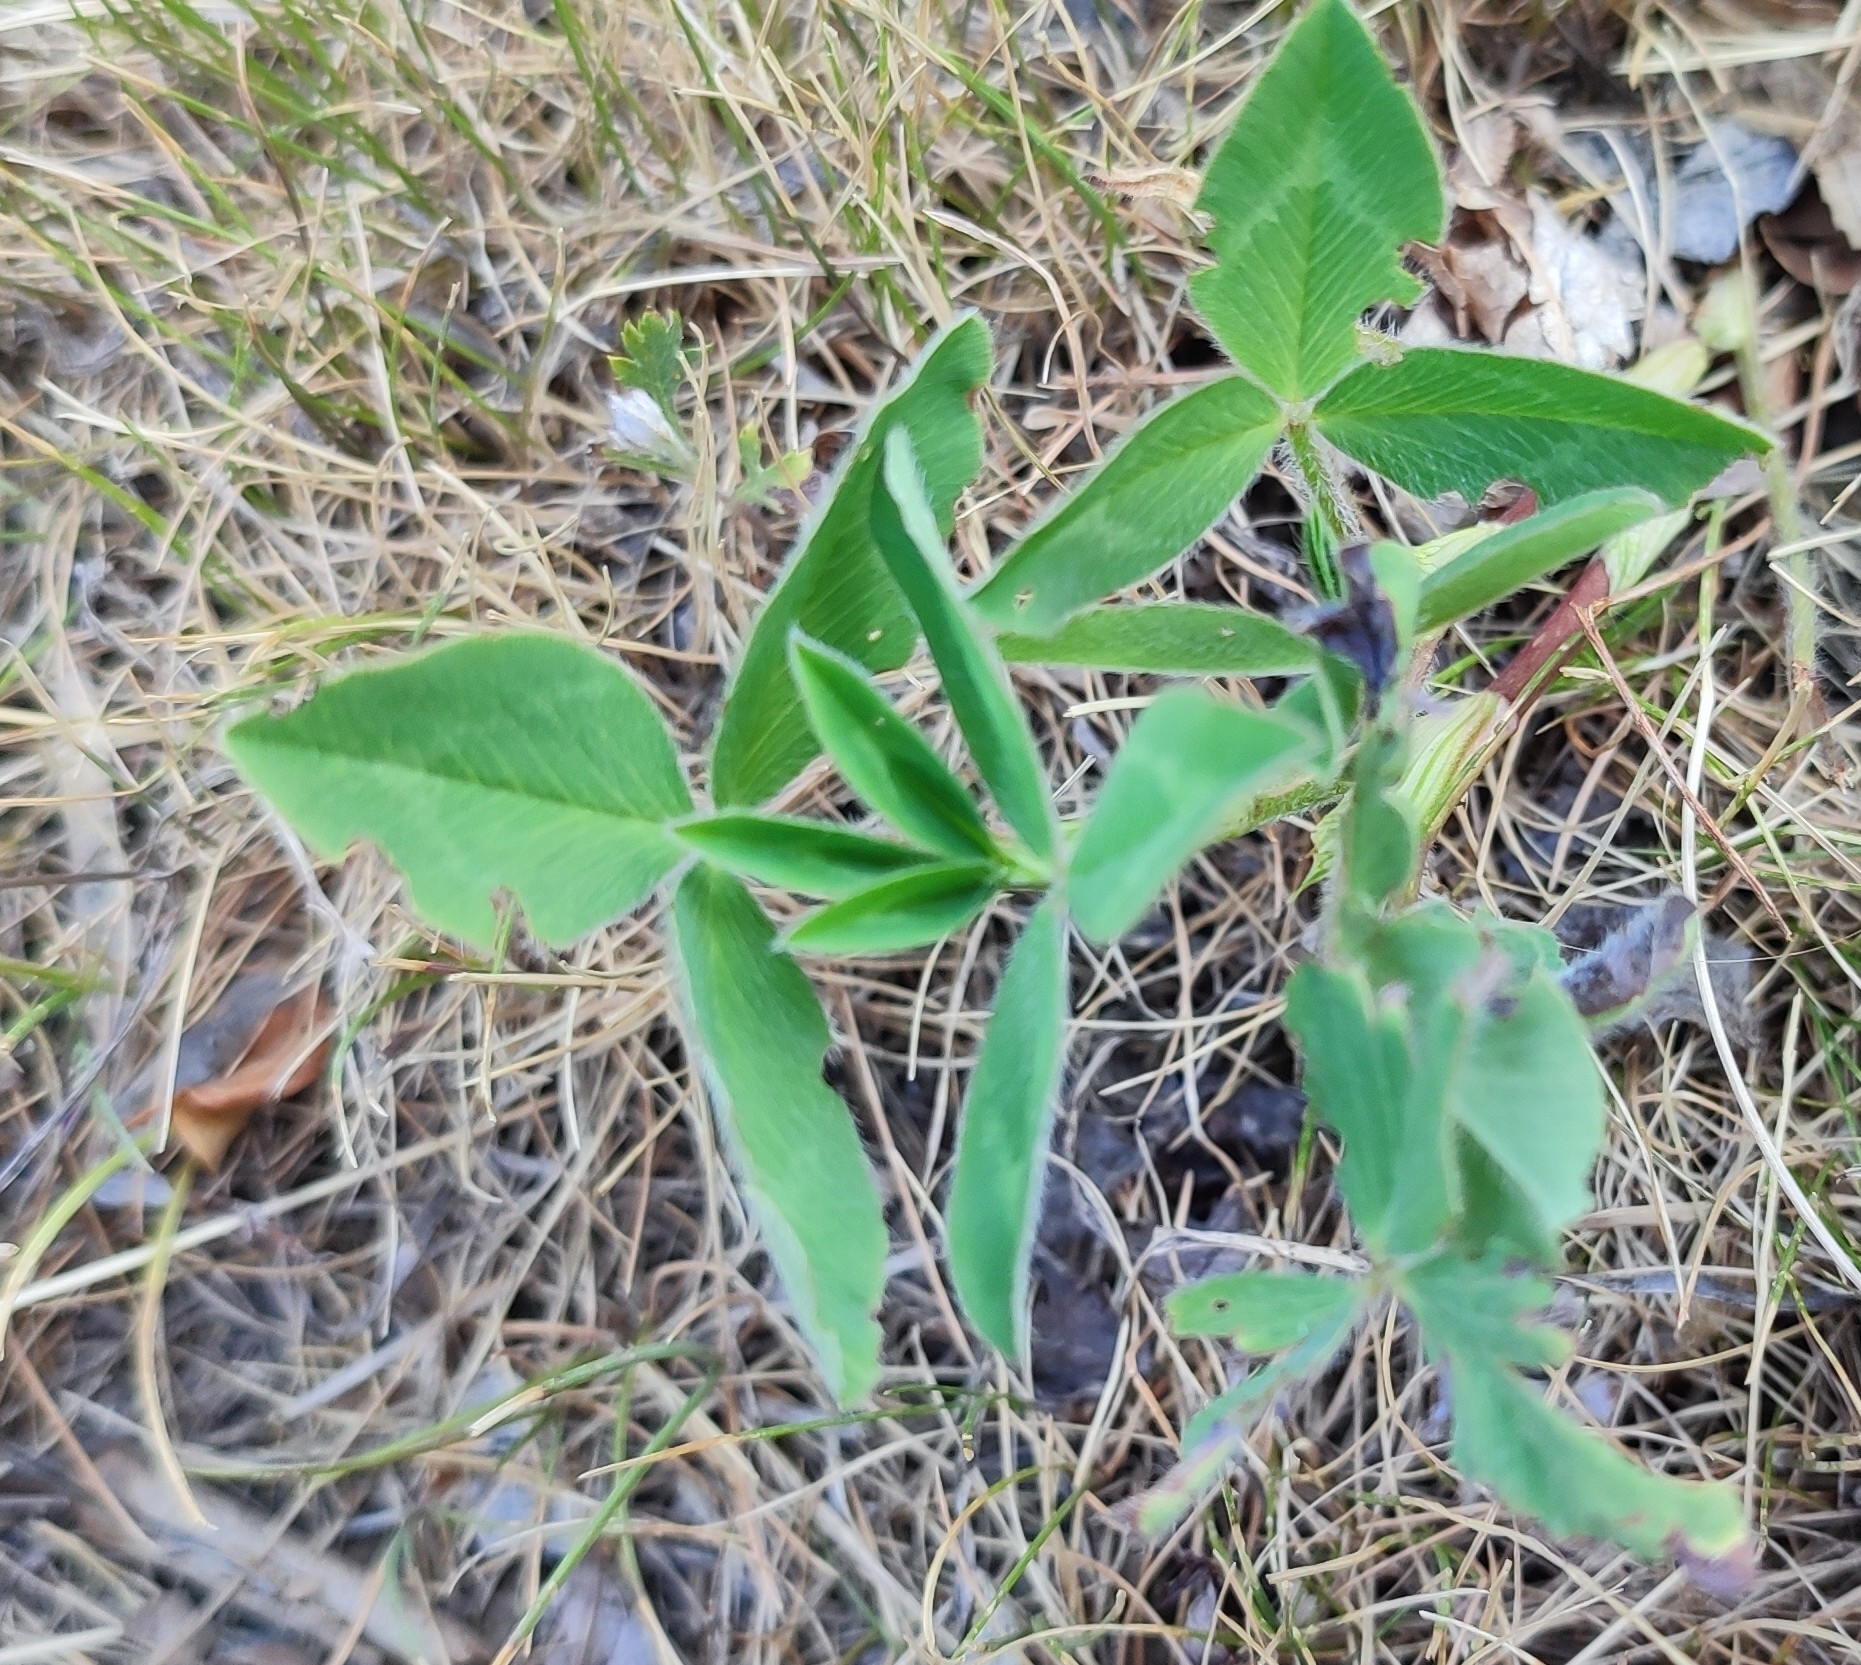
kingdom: Plantae
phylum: Tracheophyta
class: Magnoliopsida
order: Fabales
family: Fabaceae
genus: Trifolium
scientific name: Trifolium pratense
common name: Red clover
